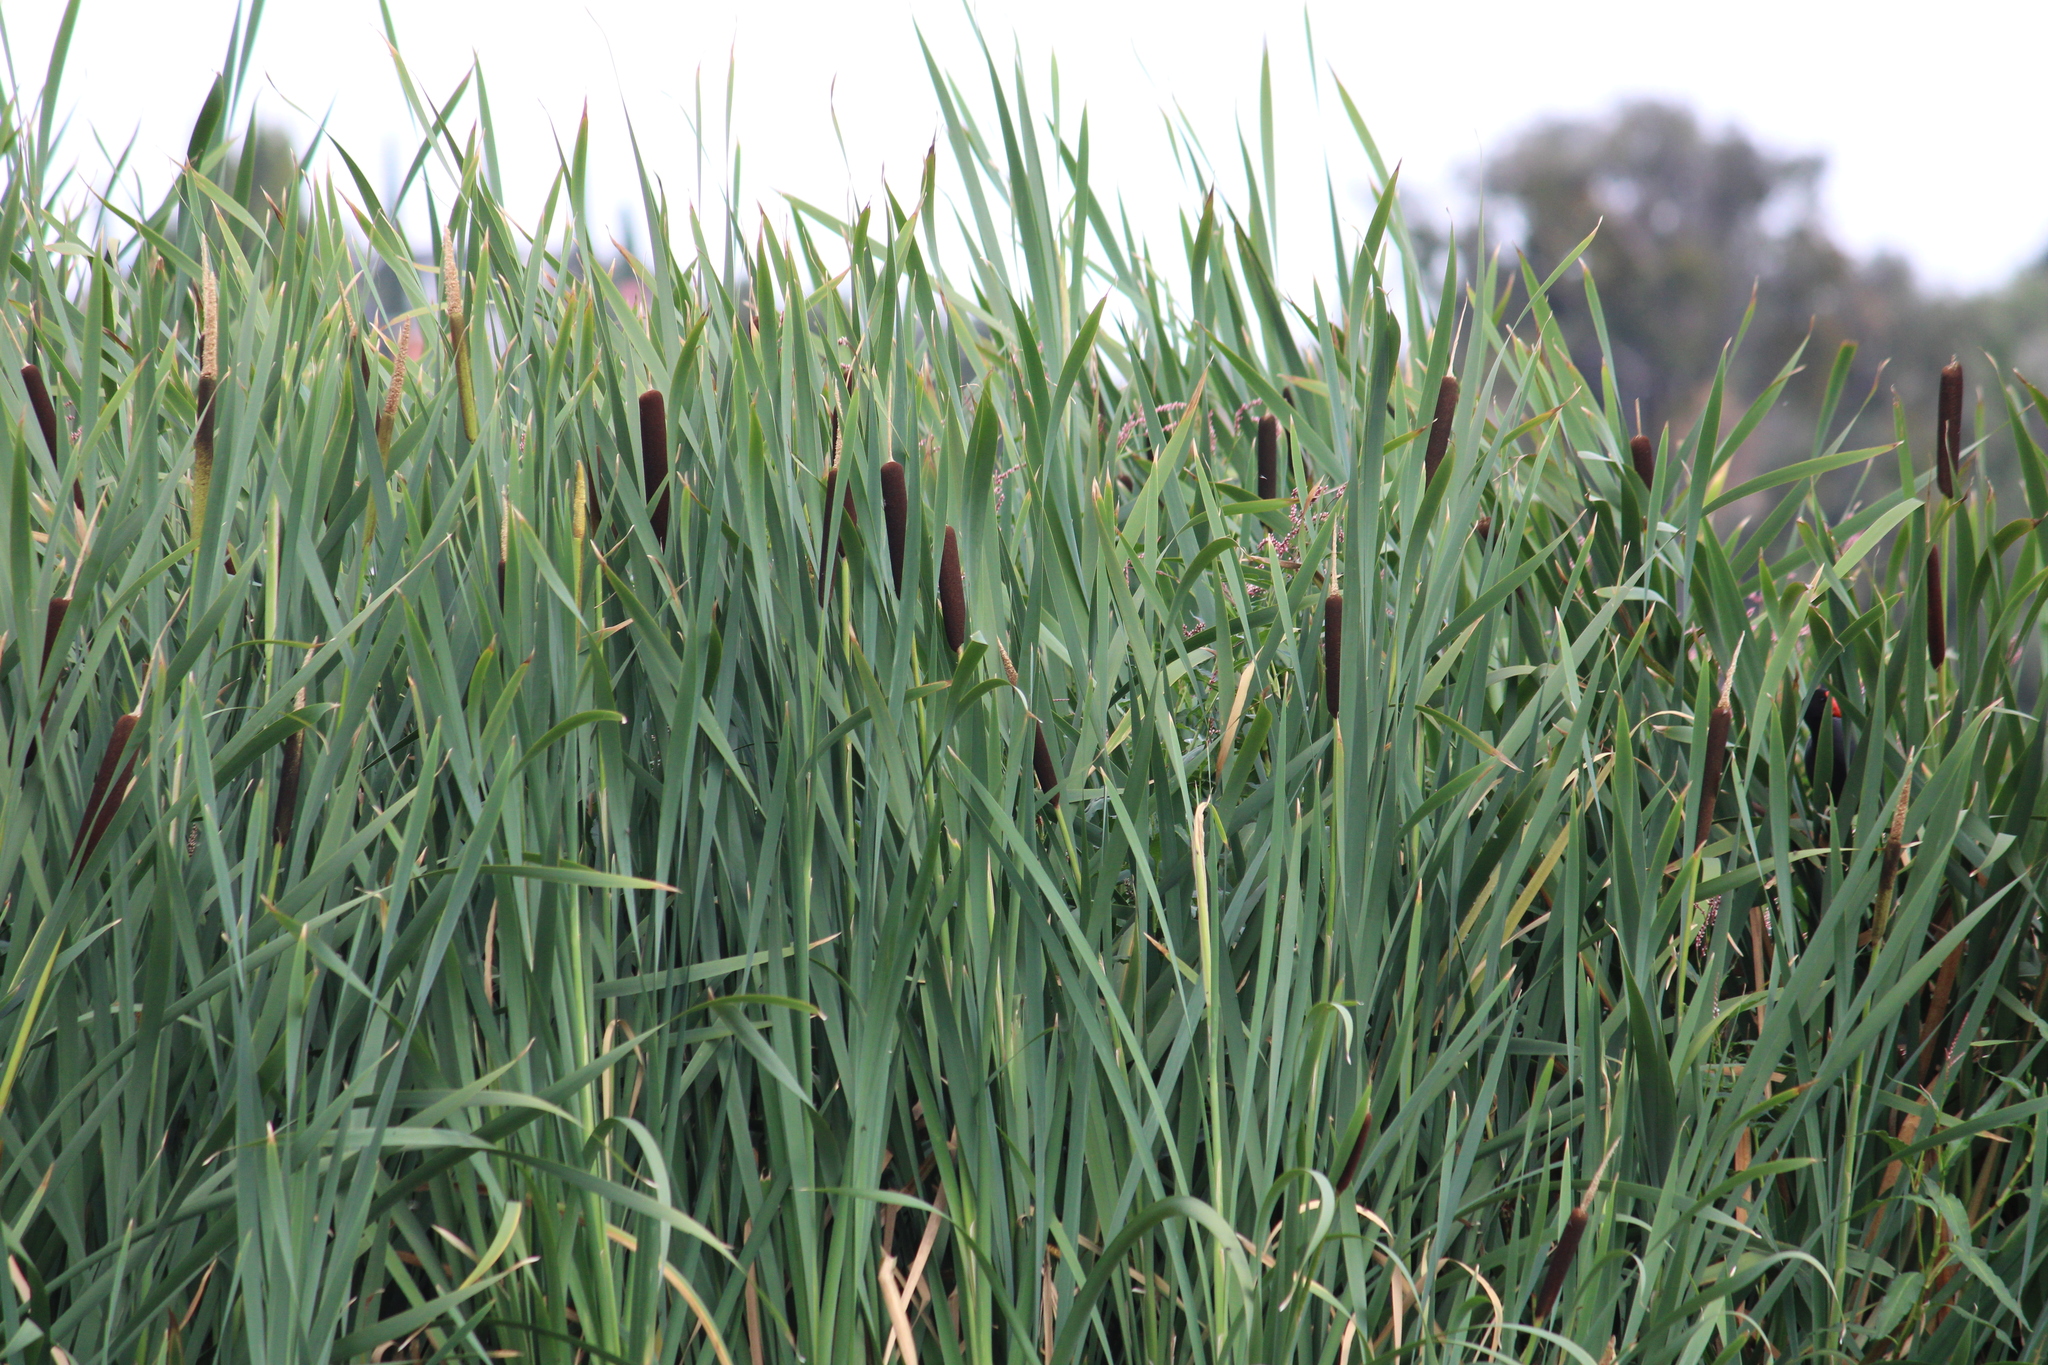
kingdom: Plantae
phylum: Tracheophyta
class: Liliopsida
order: Poales
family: Typhaceae
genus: Typha
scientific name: Typha latifolia
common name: Broadleaf cattail
